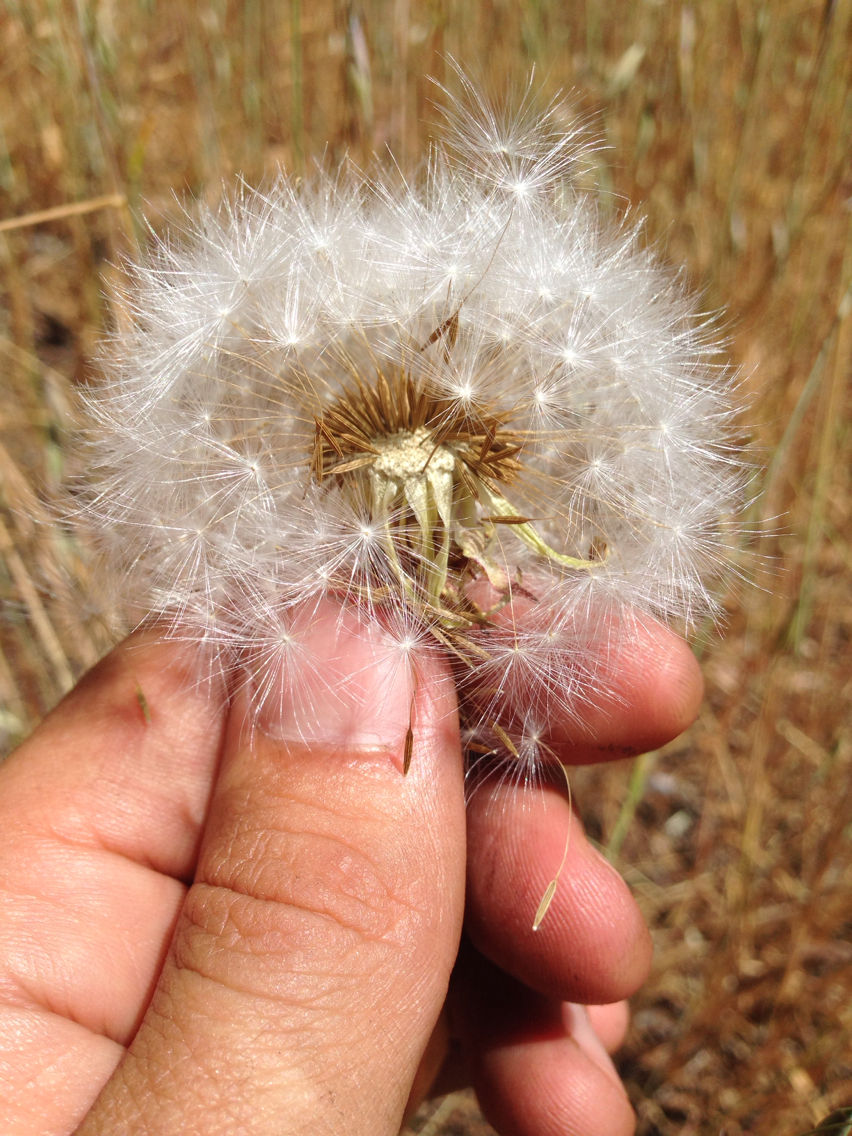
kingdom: Plantae
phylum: Tracheophyta
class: Magnoliopsida
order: Asterales
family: Asteraceae
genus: Agoseris
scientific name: Agoseris grandiflora
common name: Grassland agoseris
